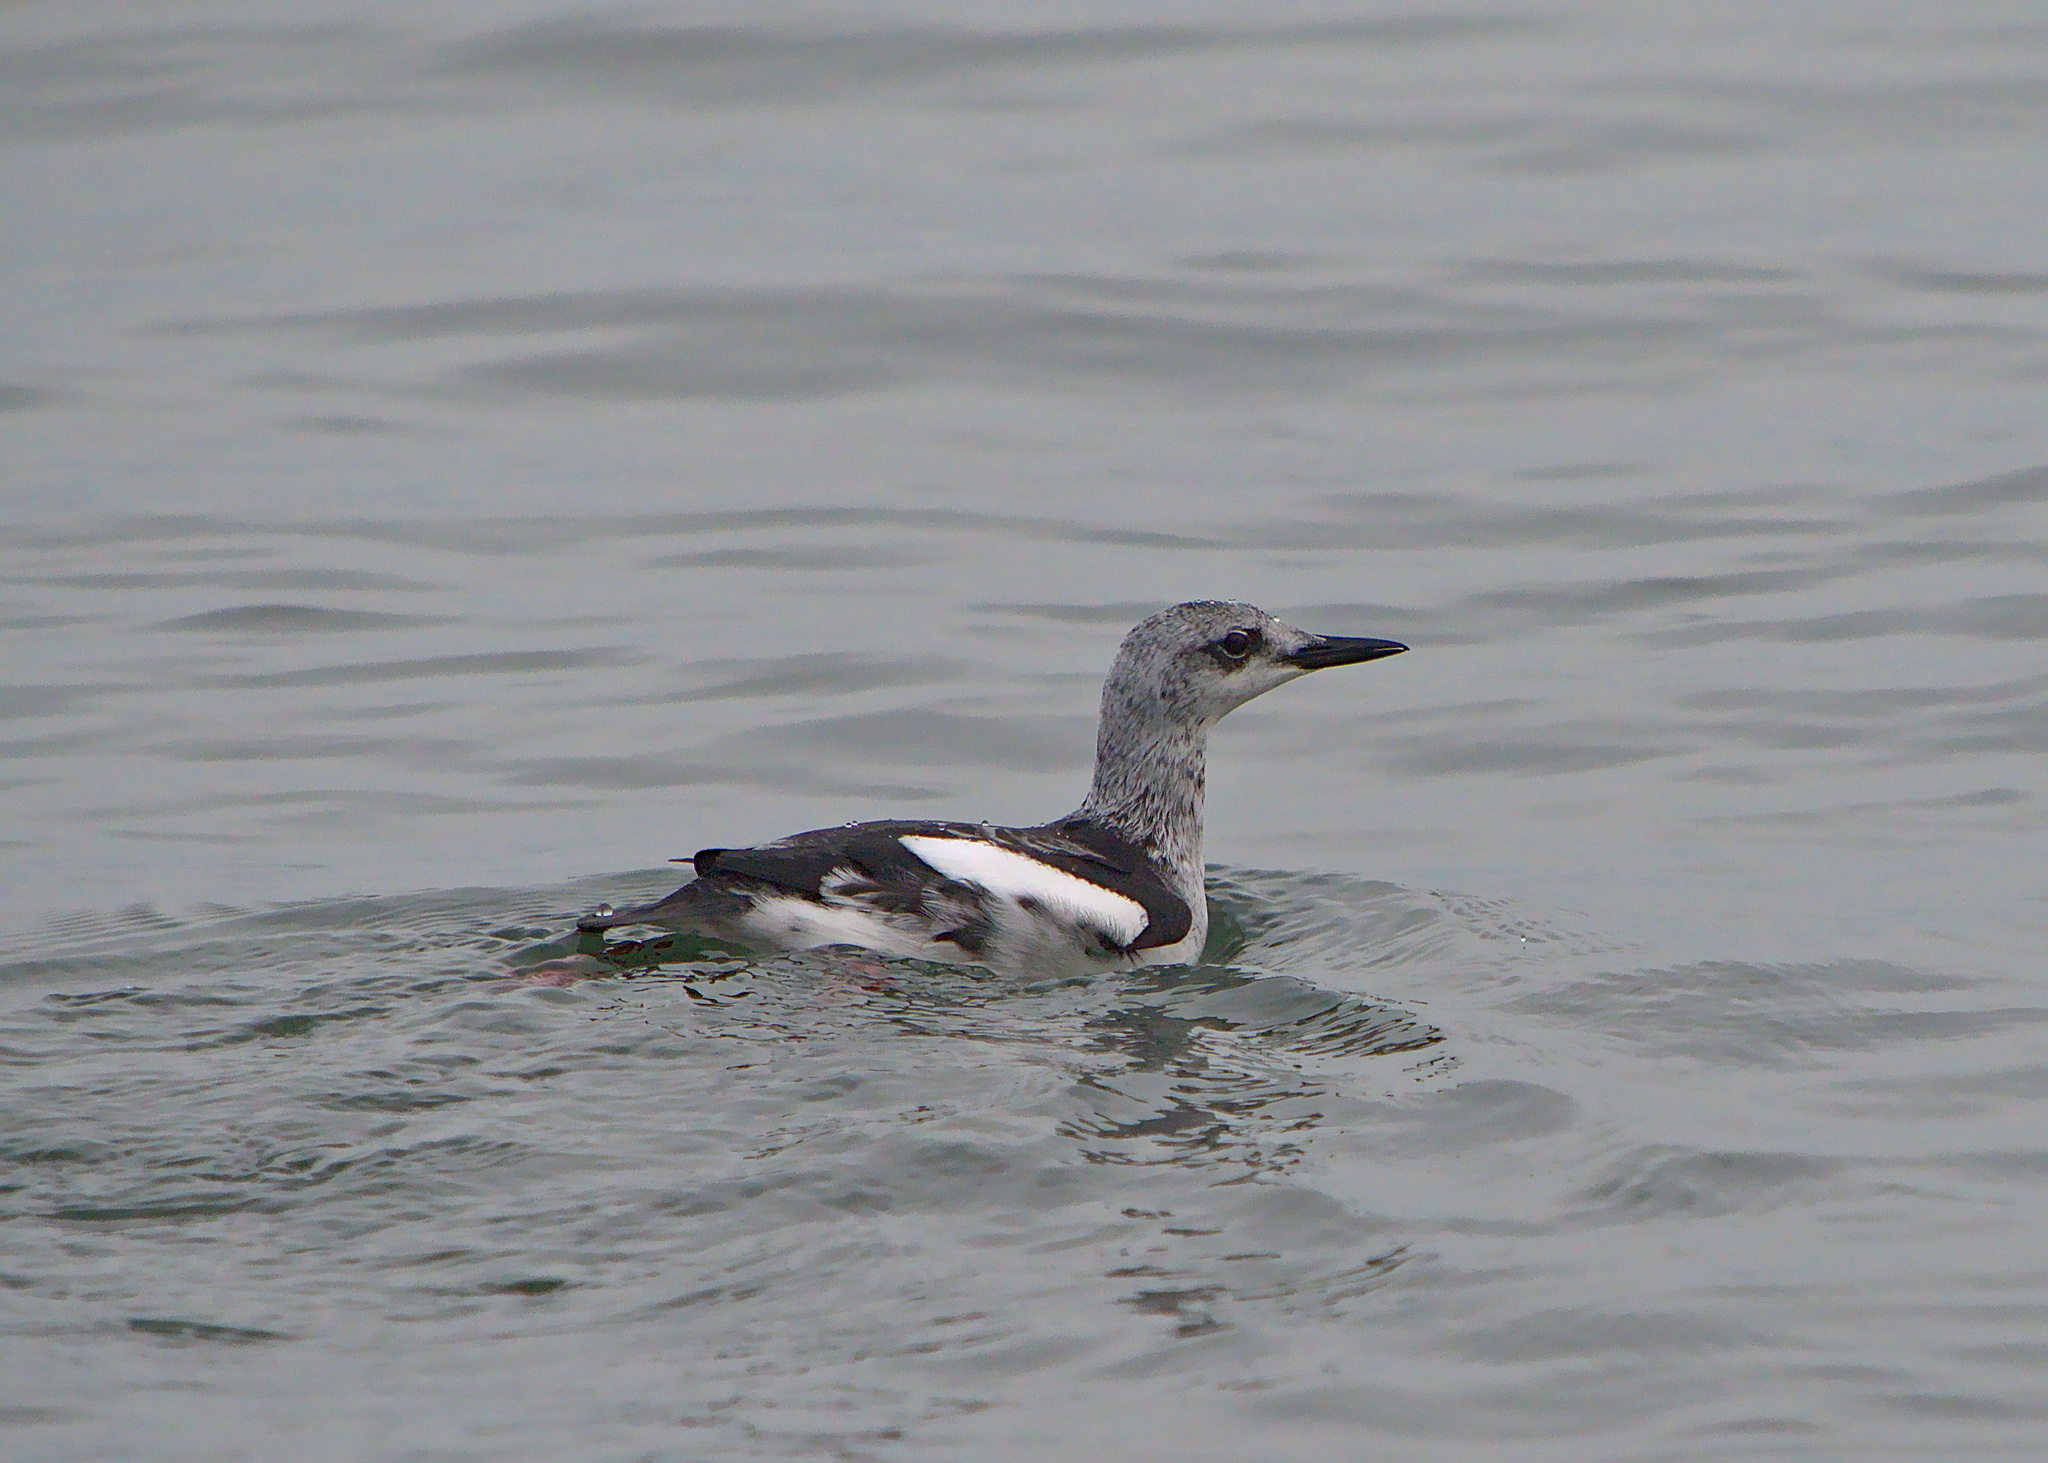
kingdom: Animalia
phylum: Chordata
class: Aves
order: Charadriiformes
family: Alcidae
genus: Cepphus
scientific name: Cepphus grylle
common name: Black guillemot
